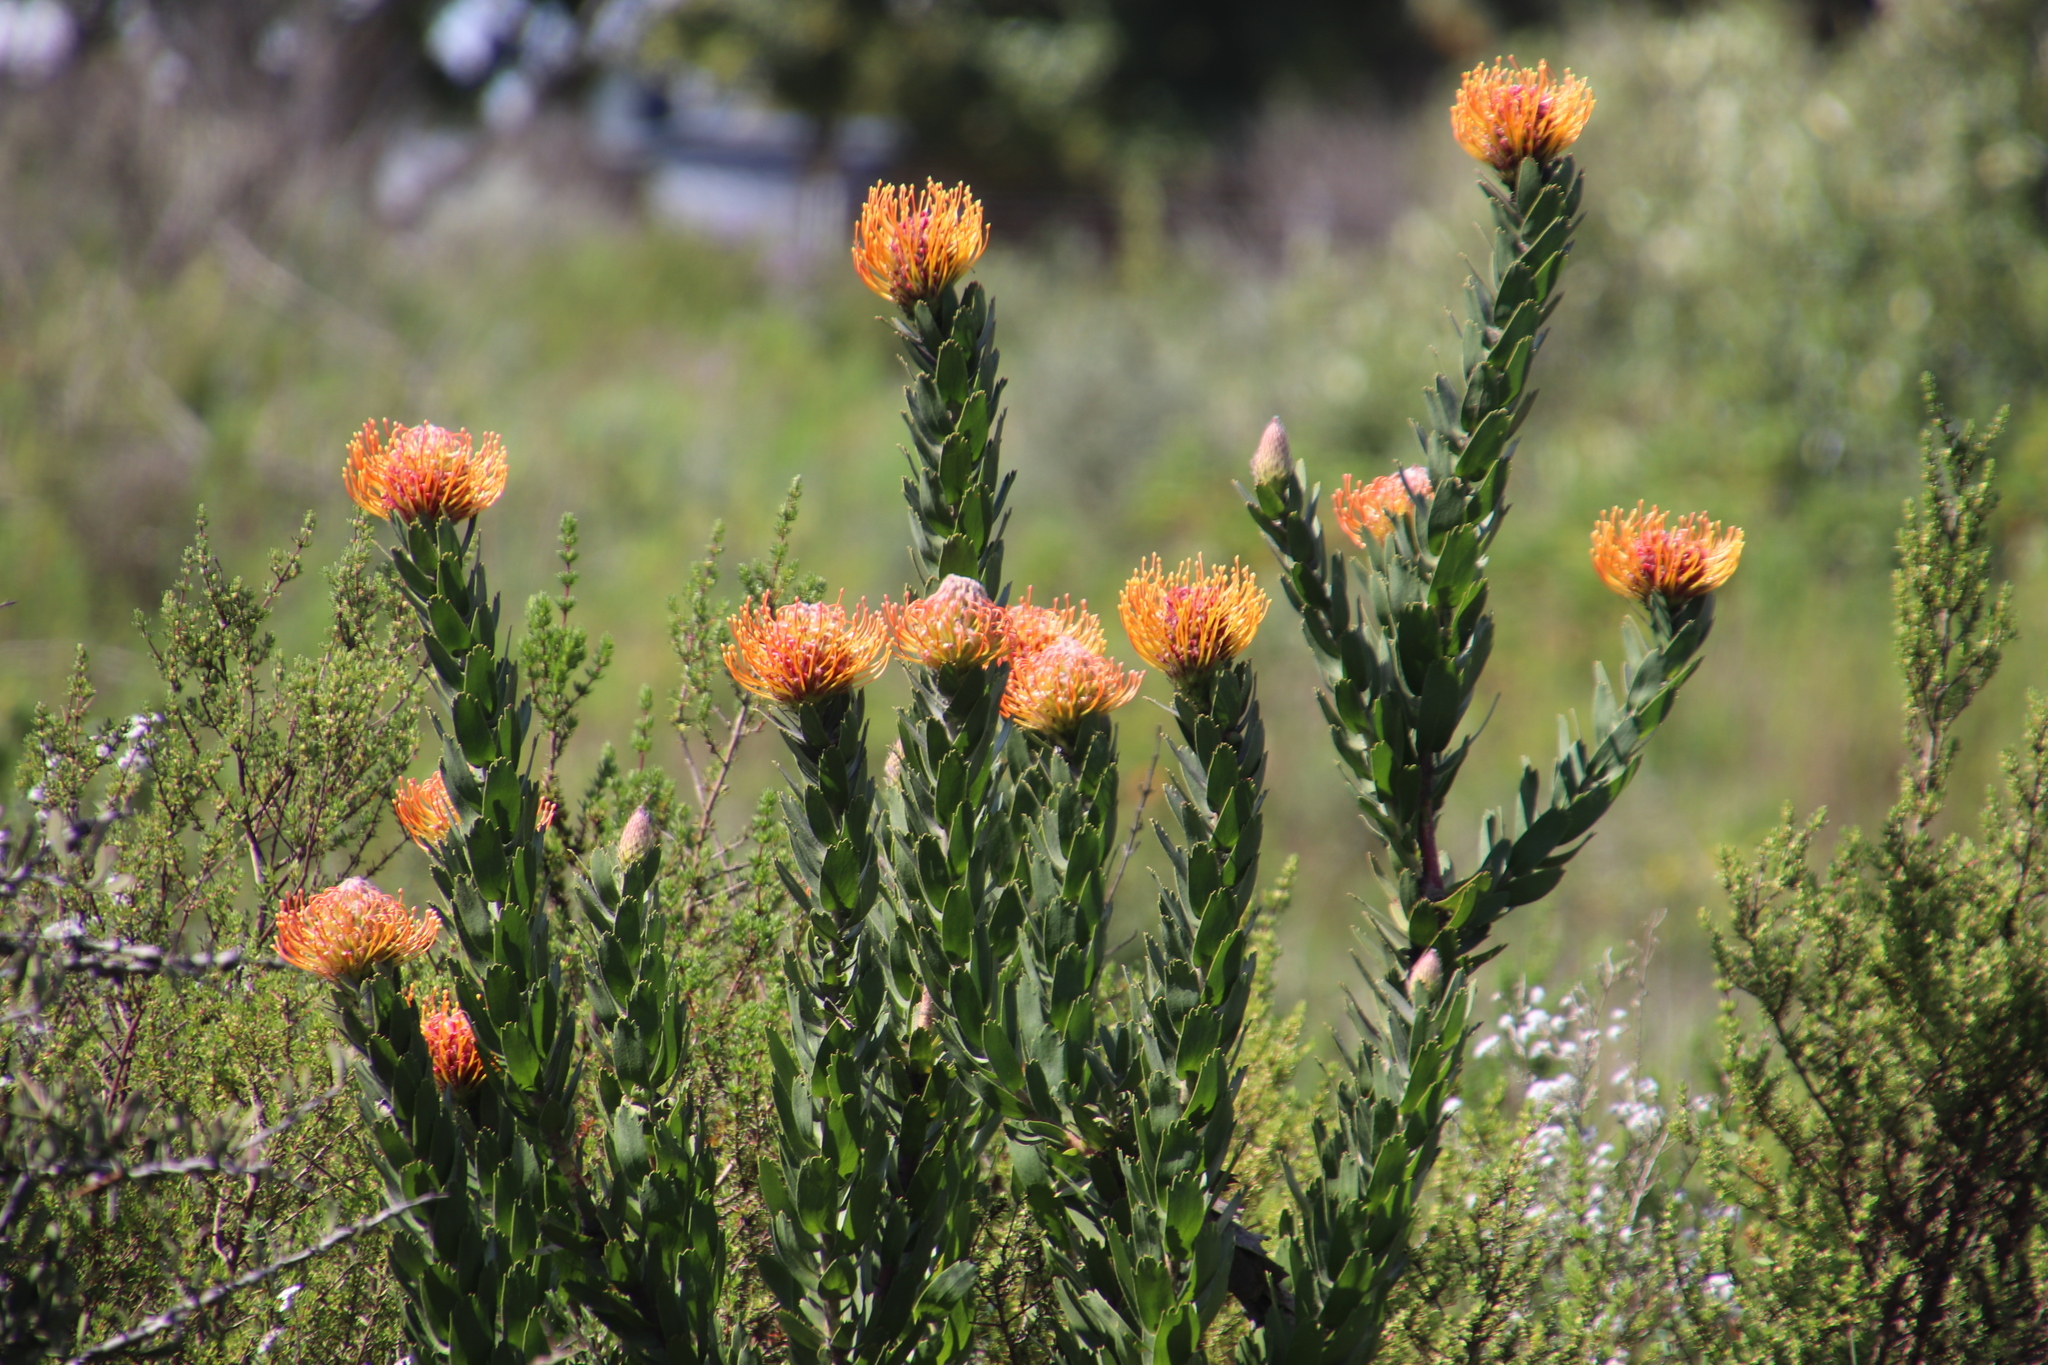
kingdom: Plantae
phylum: Tracheophyta
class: Magnoliopsida
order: Proteales
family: Proteaceae
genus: Leucospermum
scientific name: Leucospermum vestitum
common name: Silky-hair pincushion
